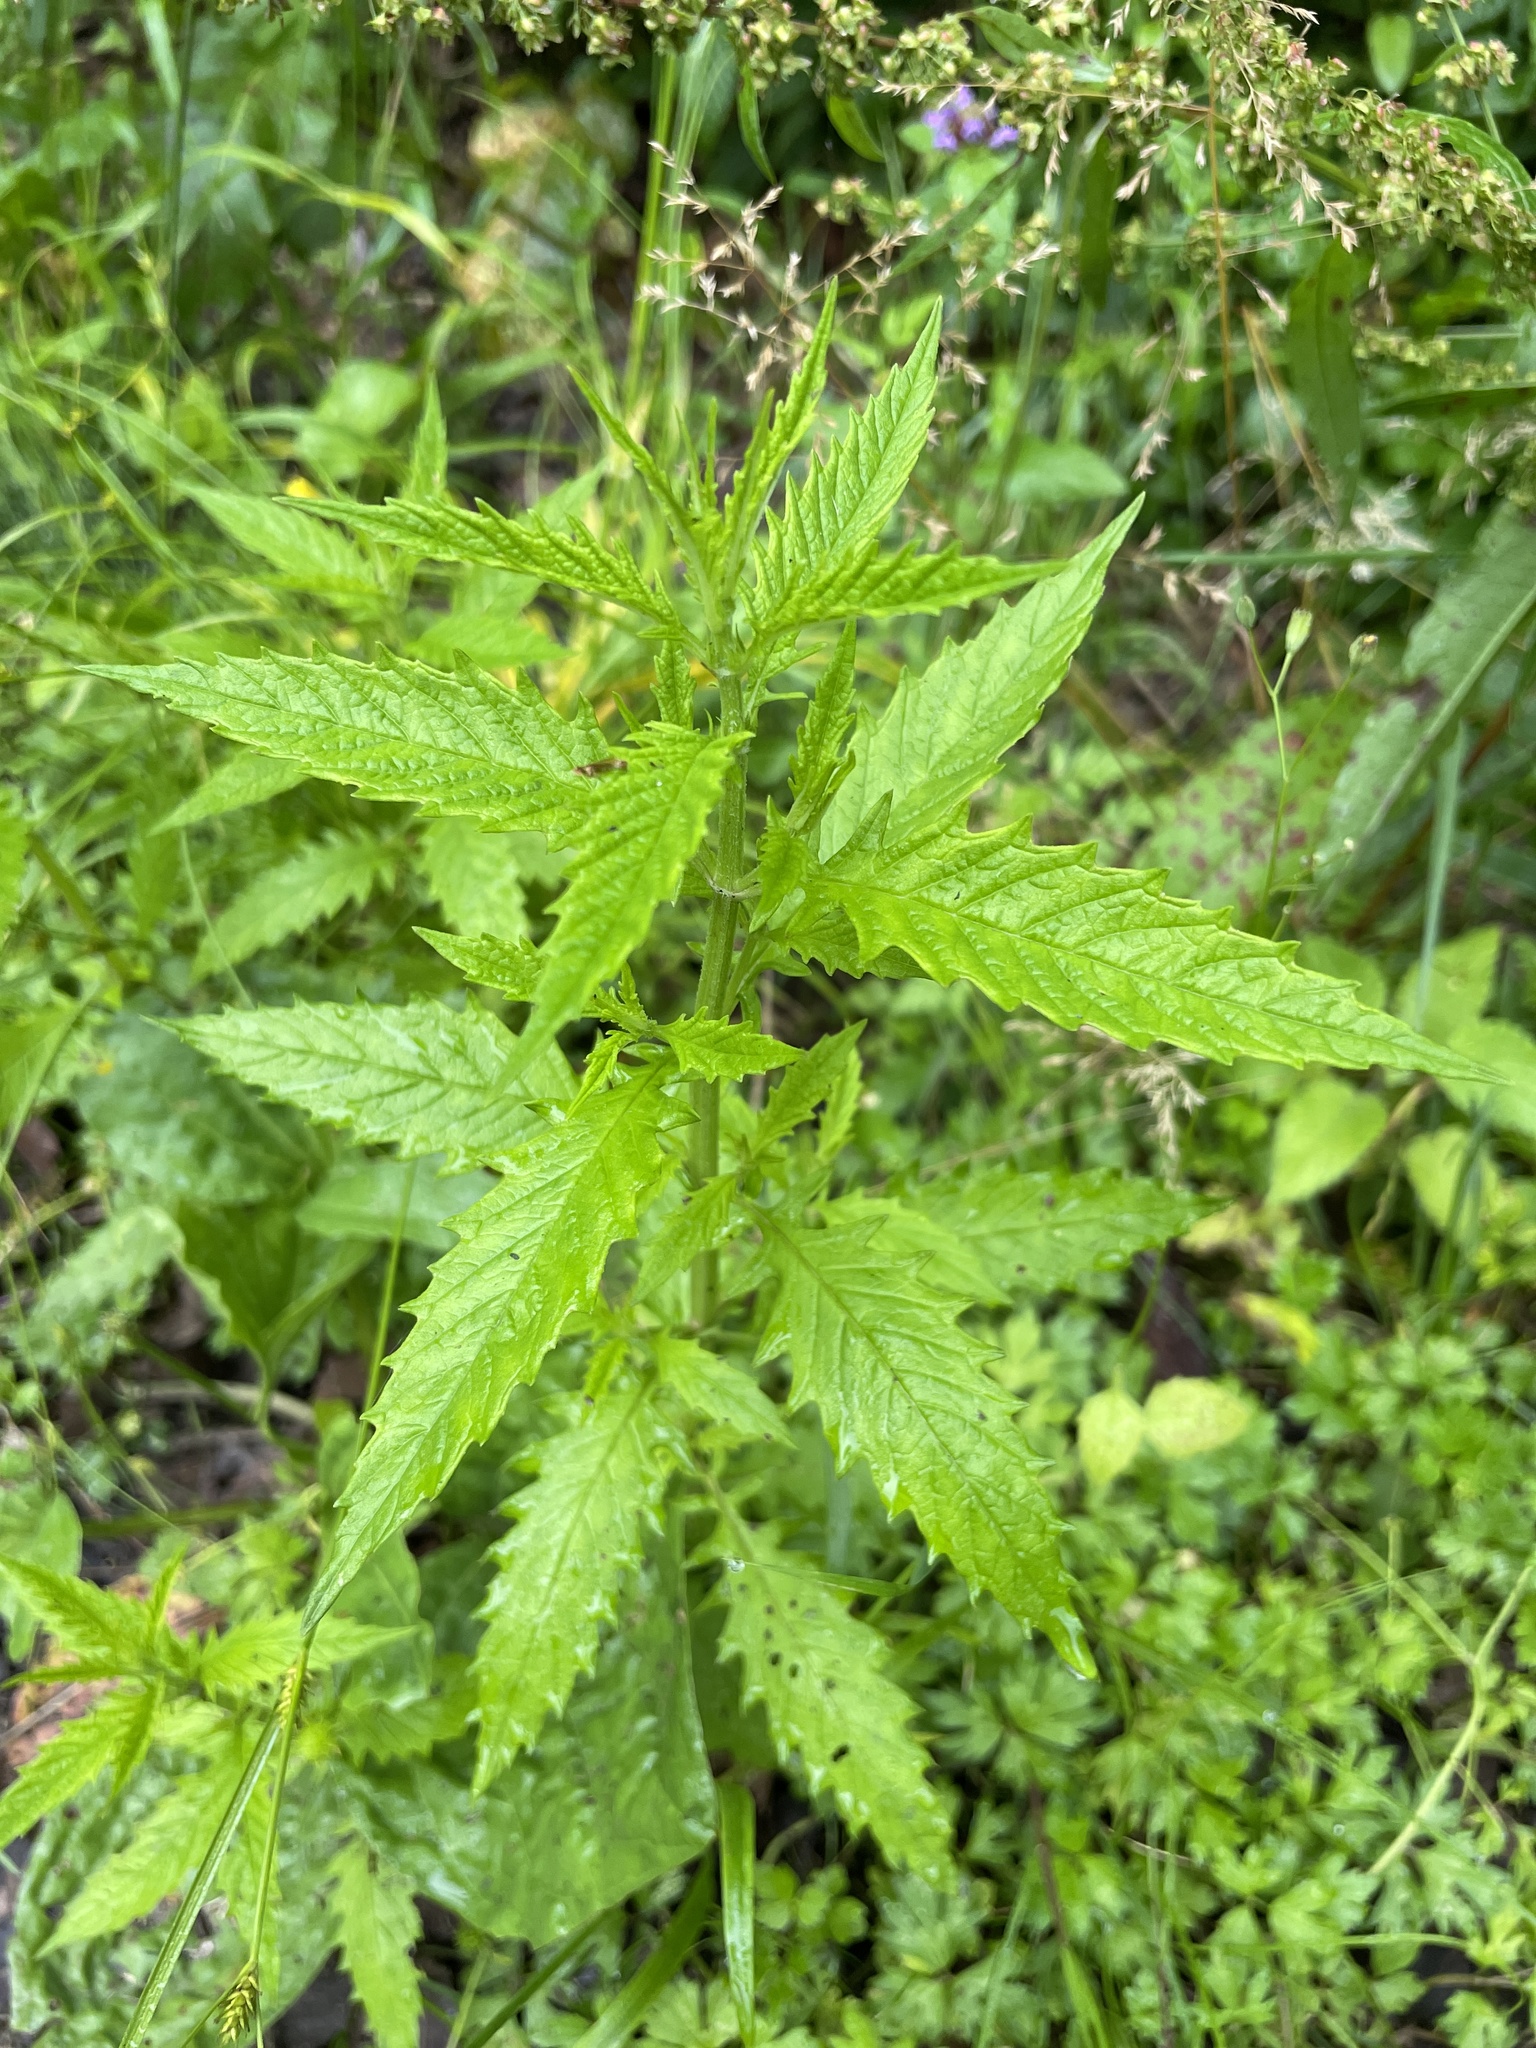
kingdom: Plantae
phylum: Tracheophyta
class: Magnoliopsida
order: Lamiales
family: Lamiaceae
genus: Lycopus
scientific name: Lycopus europaeus
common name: European bugleweed
